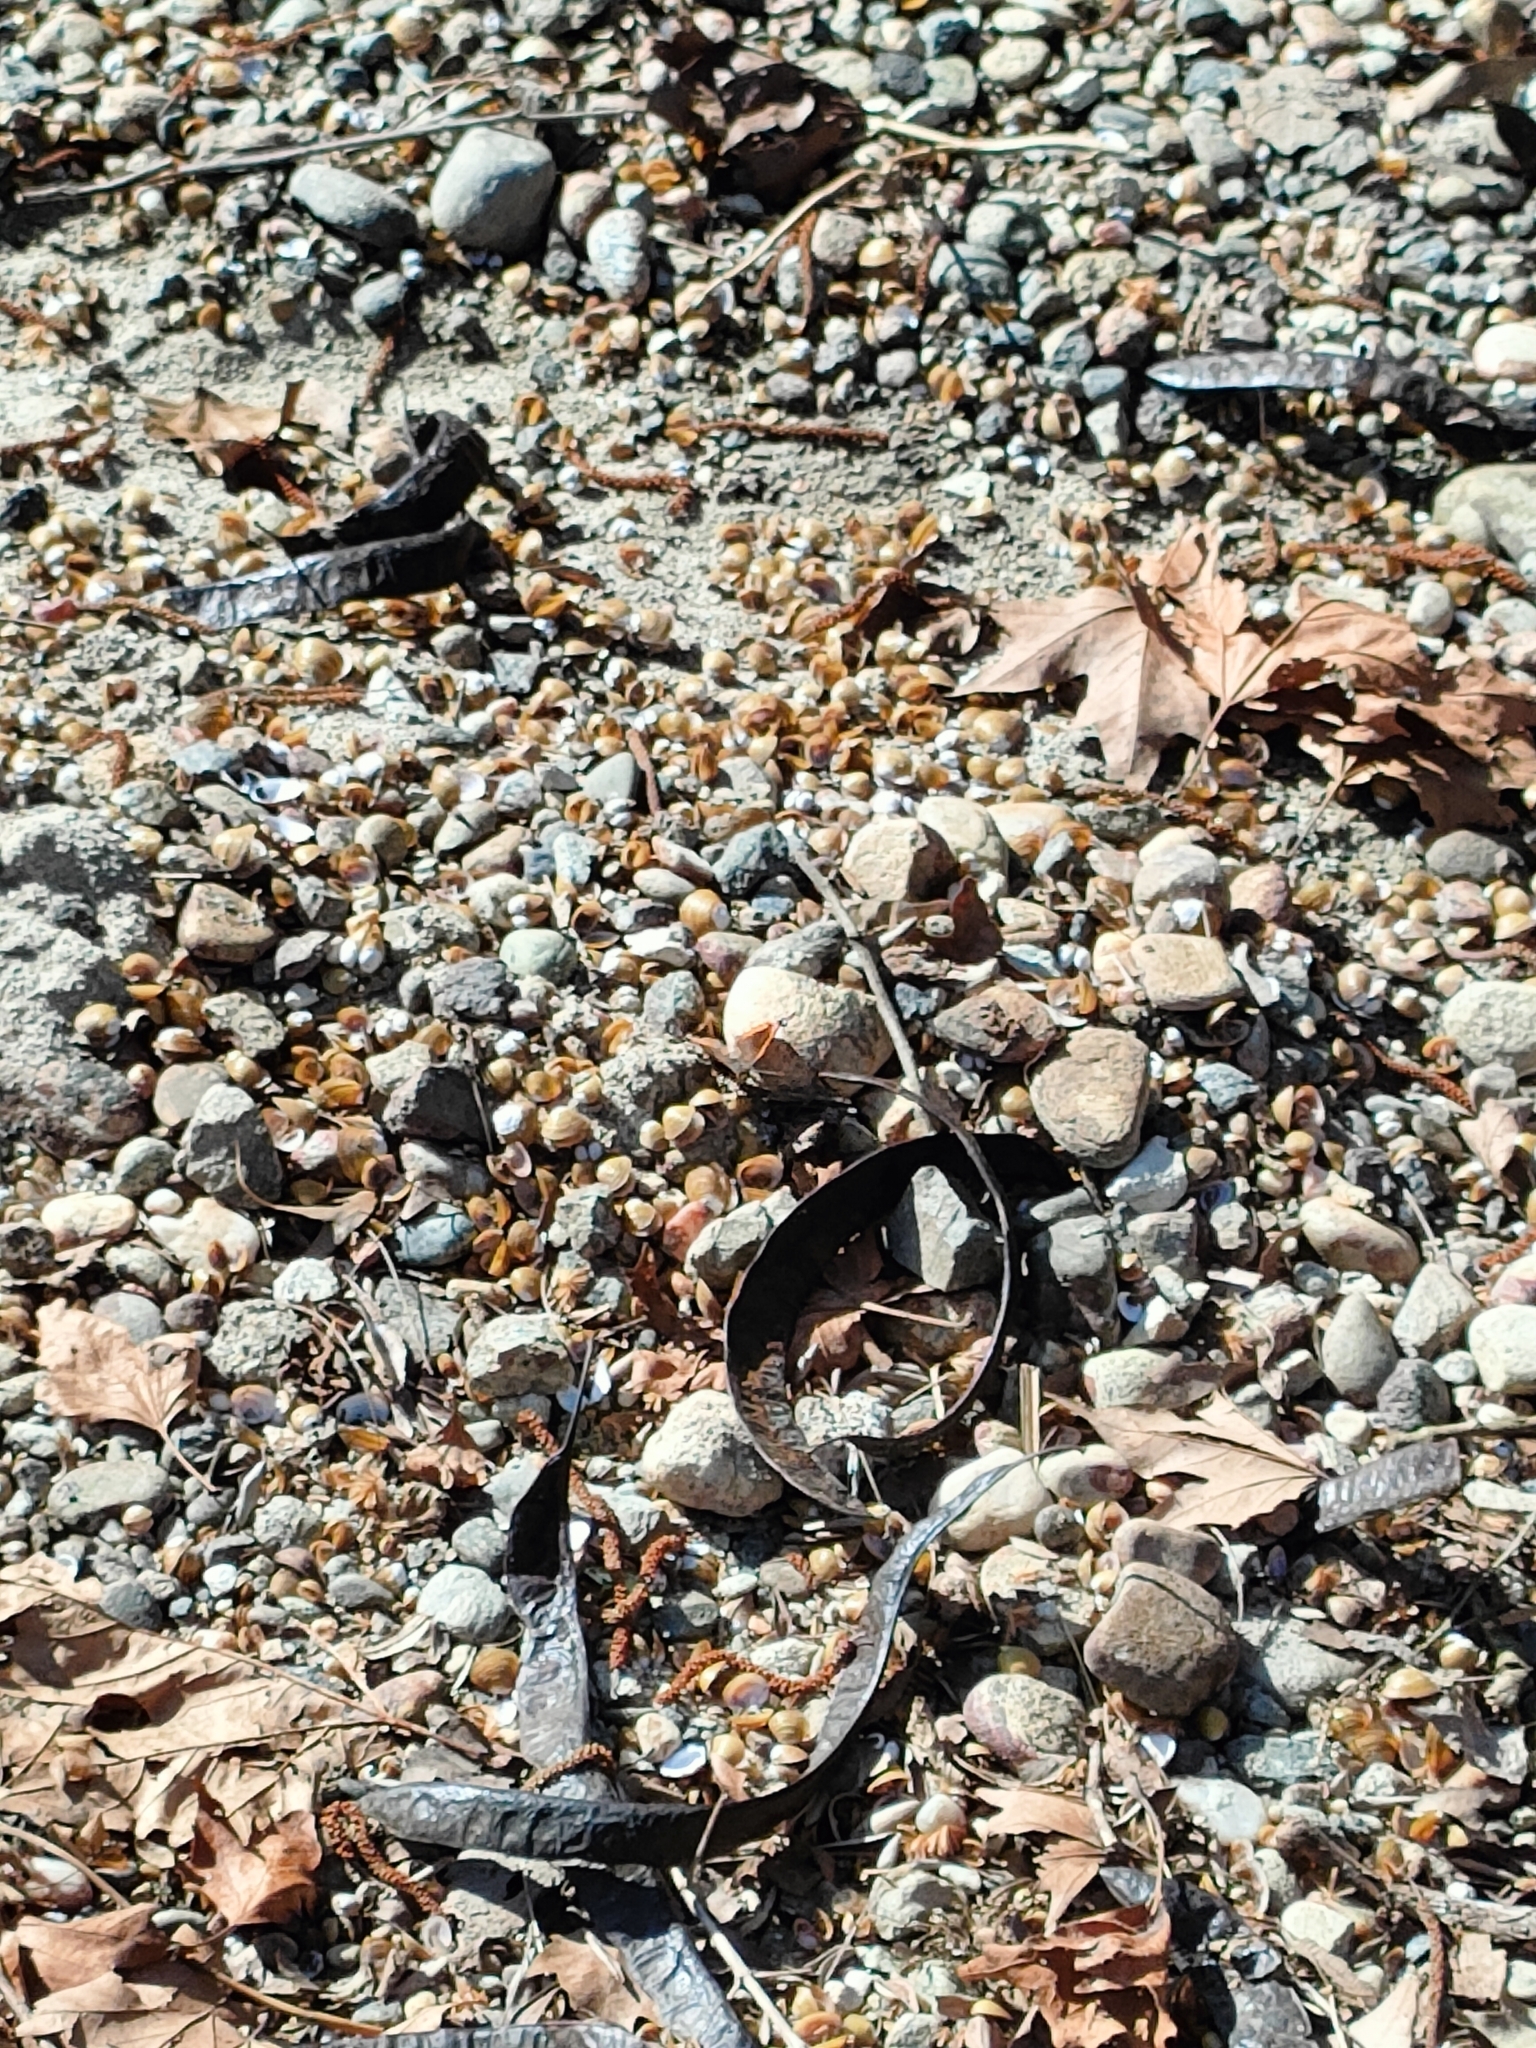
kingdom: Animalia
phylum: Arthropoda
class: Insecta
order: Lepidoptera
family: Nymphalidae
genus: Vanessa
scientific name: Vanessa atalanta
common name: Red admiral
